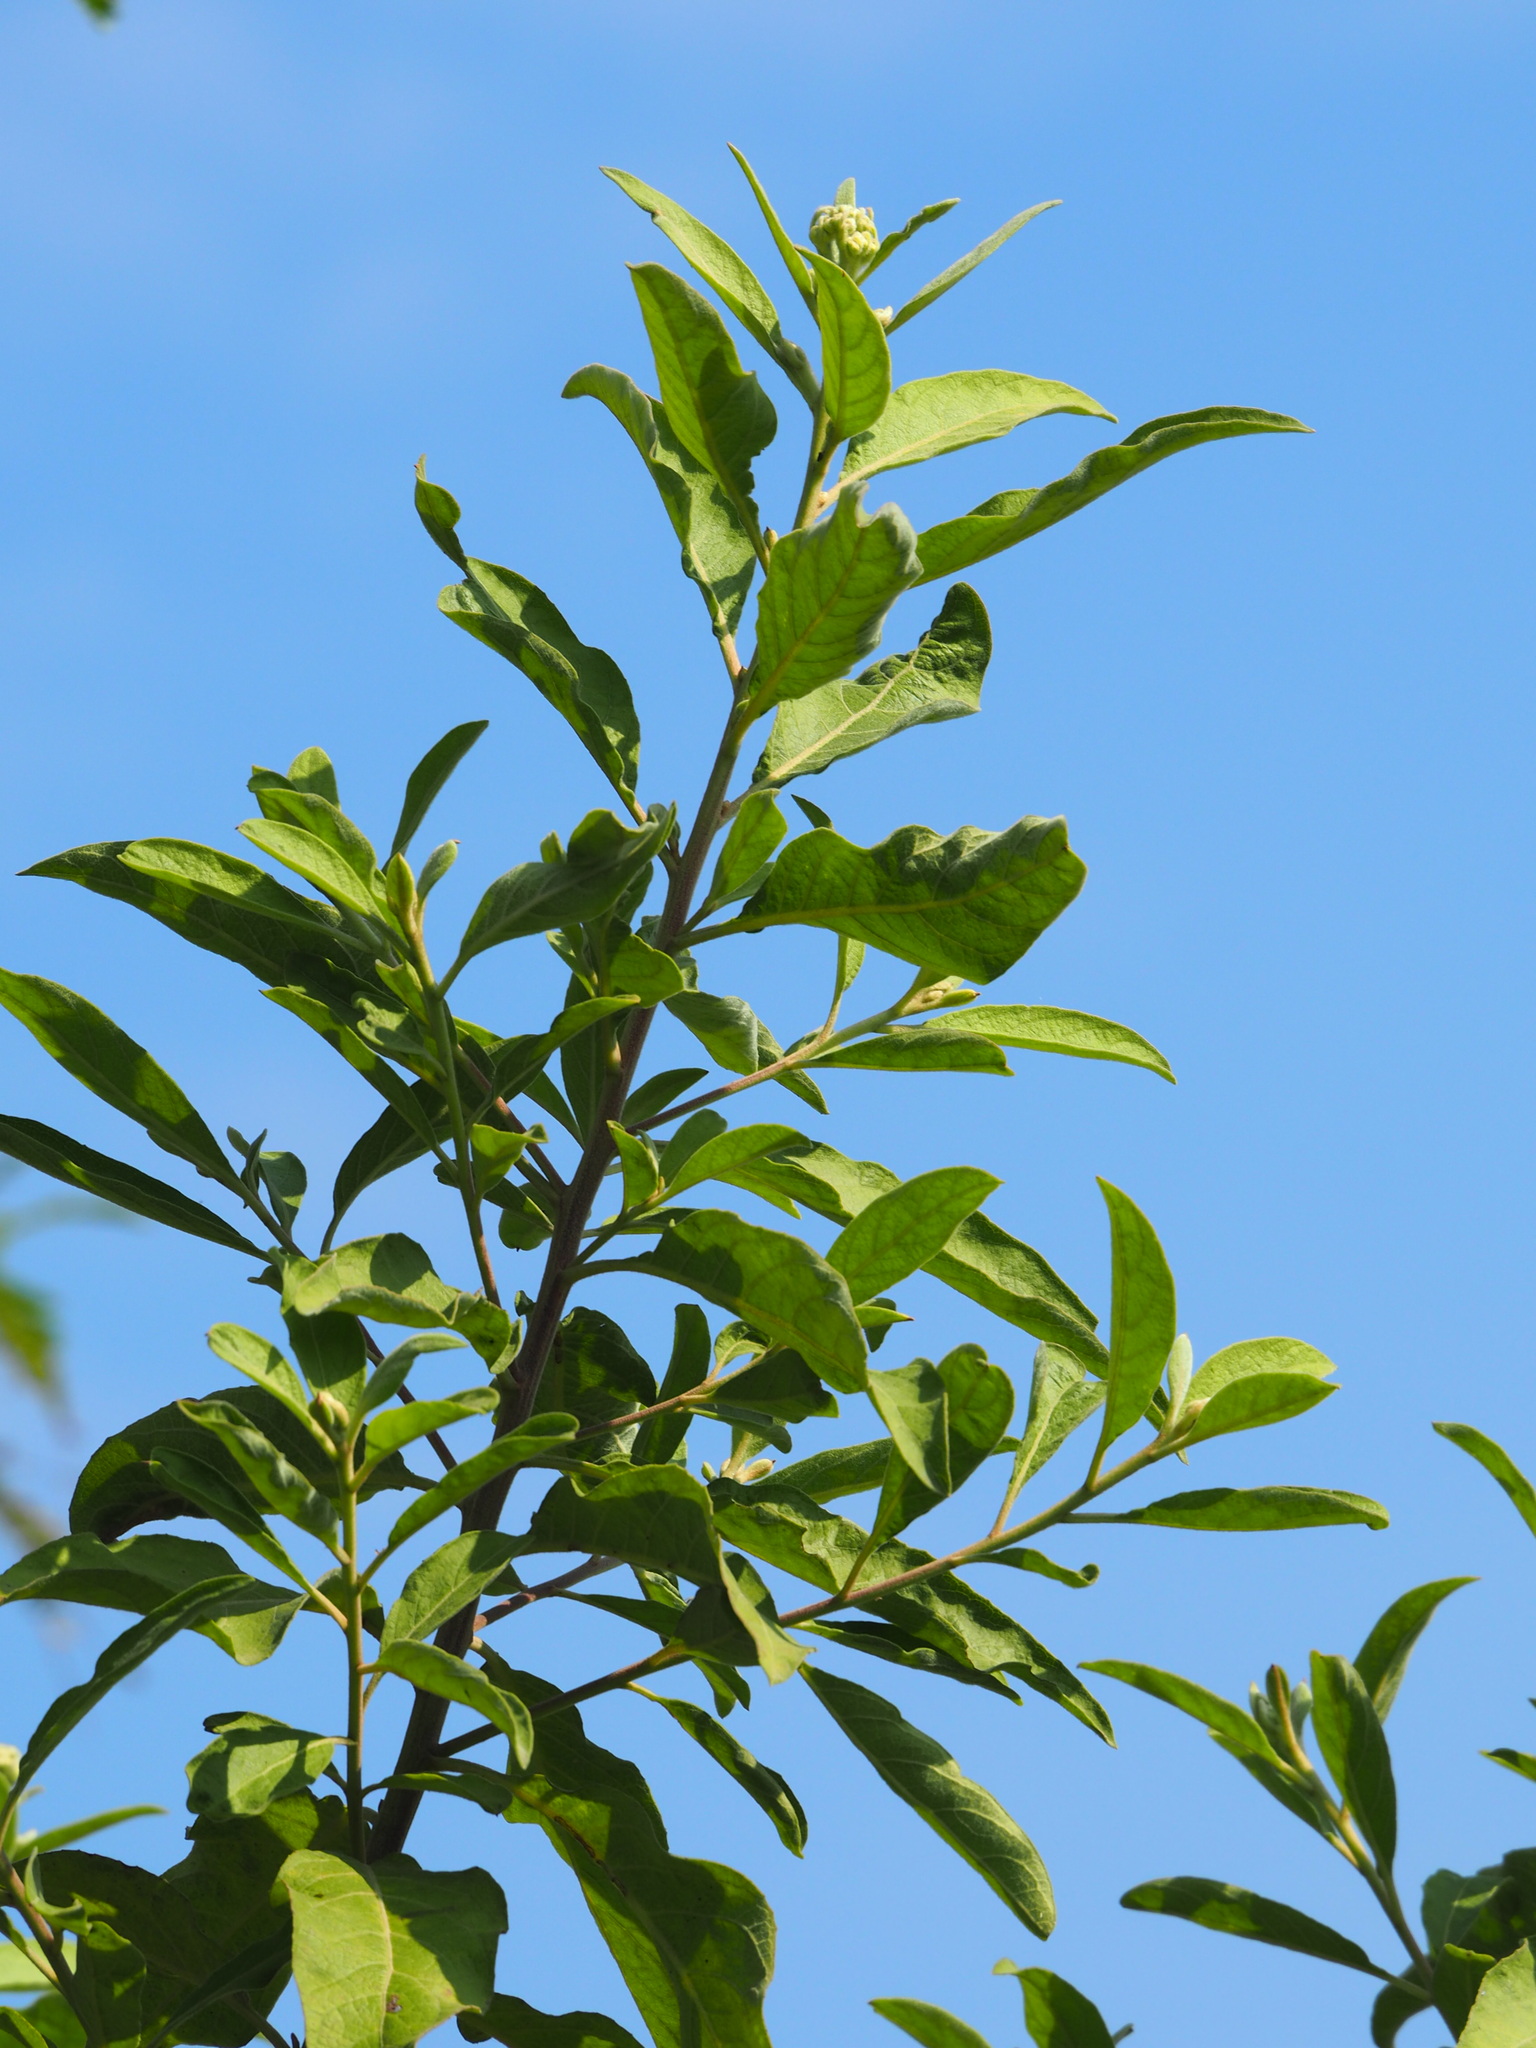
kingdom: Plantae
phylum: Tracheophyta
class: Magnoliopsida
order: Asterales
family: Asteraceae
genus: Pluchea
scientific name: Pluchea carolinensis
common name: Marsh fleabane
